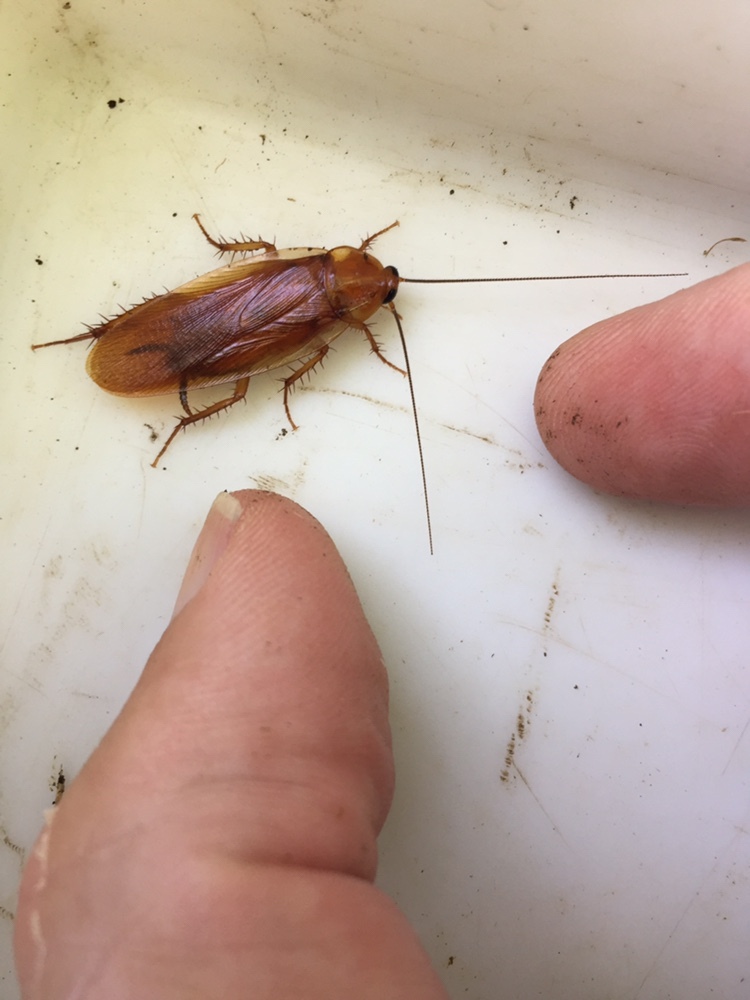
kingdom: Animalia
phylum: Arthropoda
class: Insecta
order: Blattodea
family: Ectobiidae
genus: Neotemnopteryx
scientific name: Neotemnopteryx fulva
